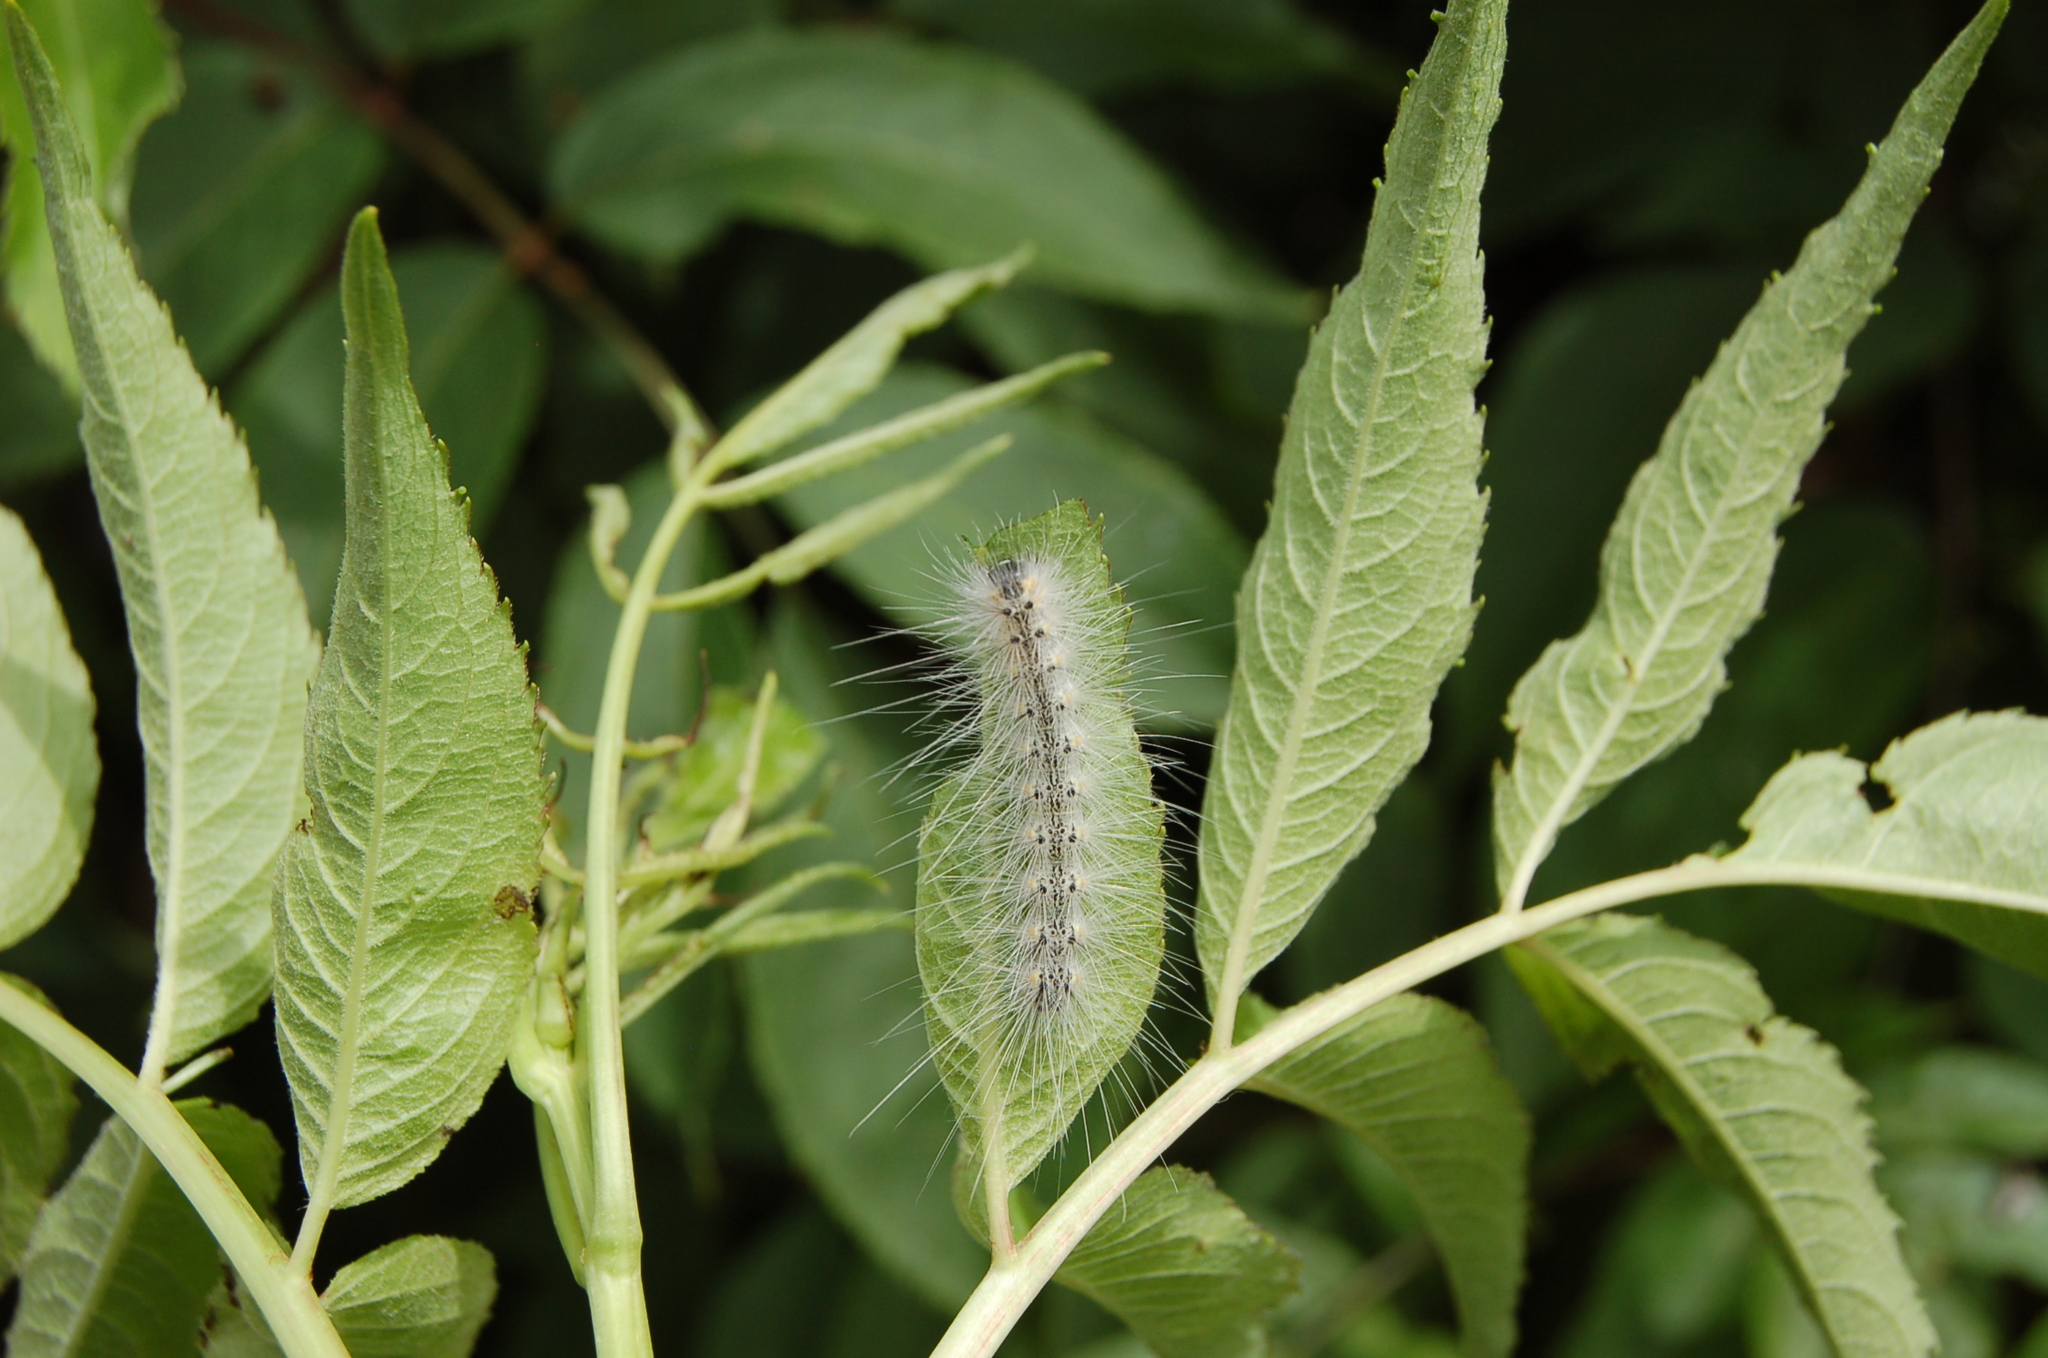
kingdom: Animalia
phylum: Arthropoda
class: Insecta
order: Lepidoptera
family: Erebidae
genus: Hyphantria
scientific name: Hyphantria cunea
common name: American white moth
